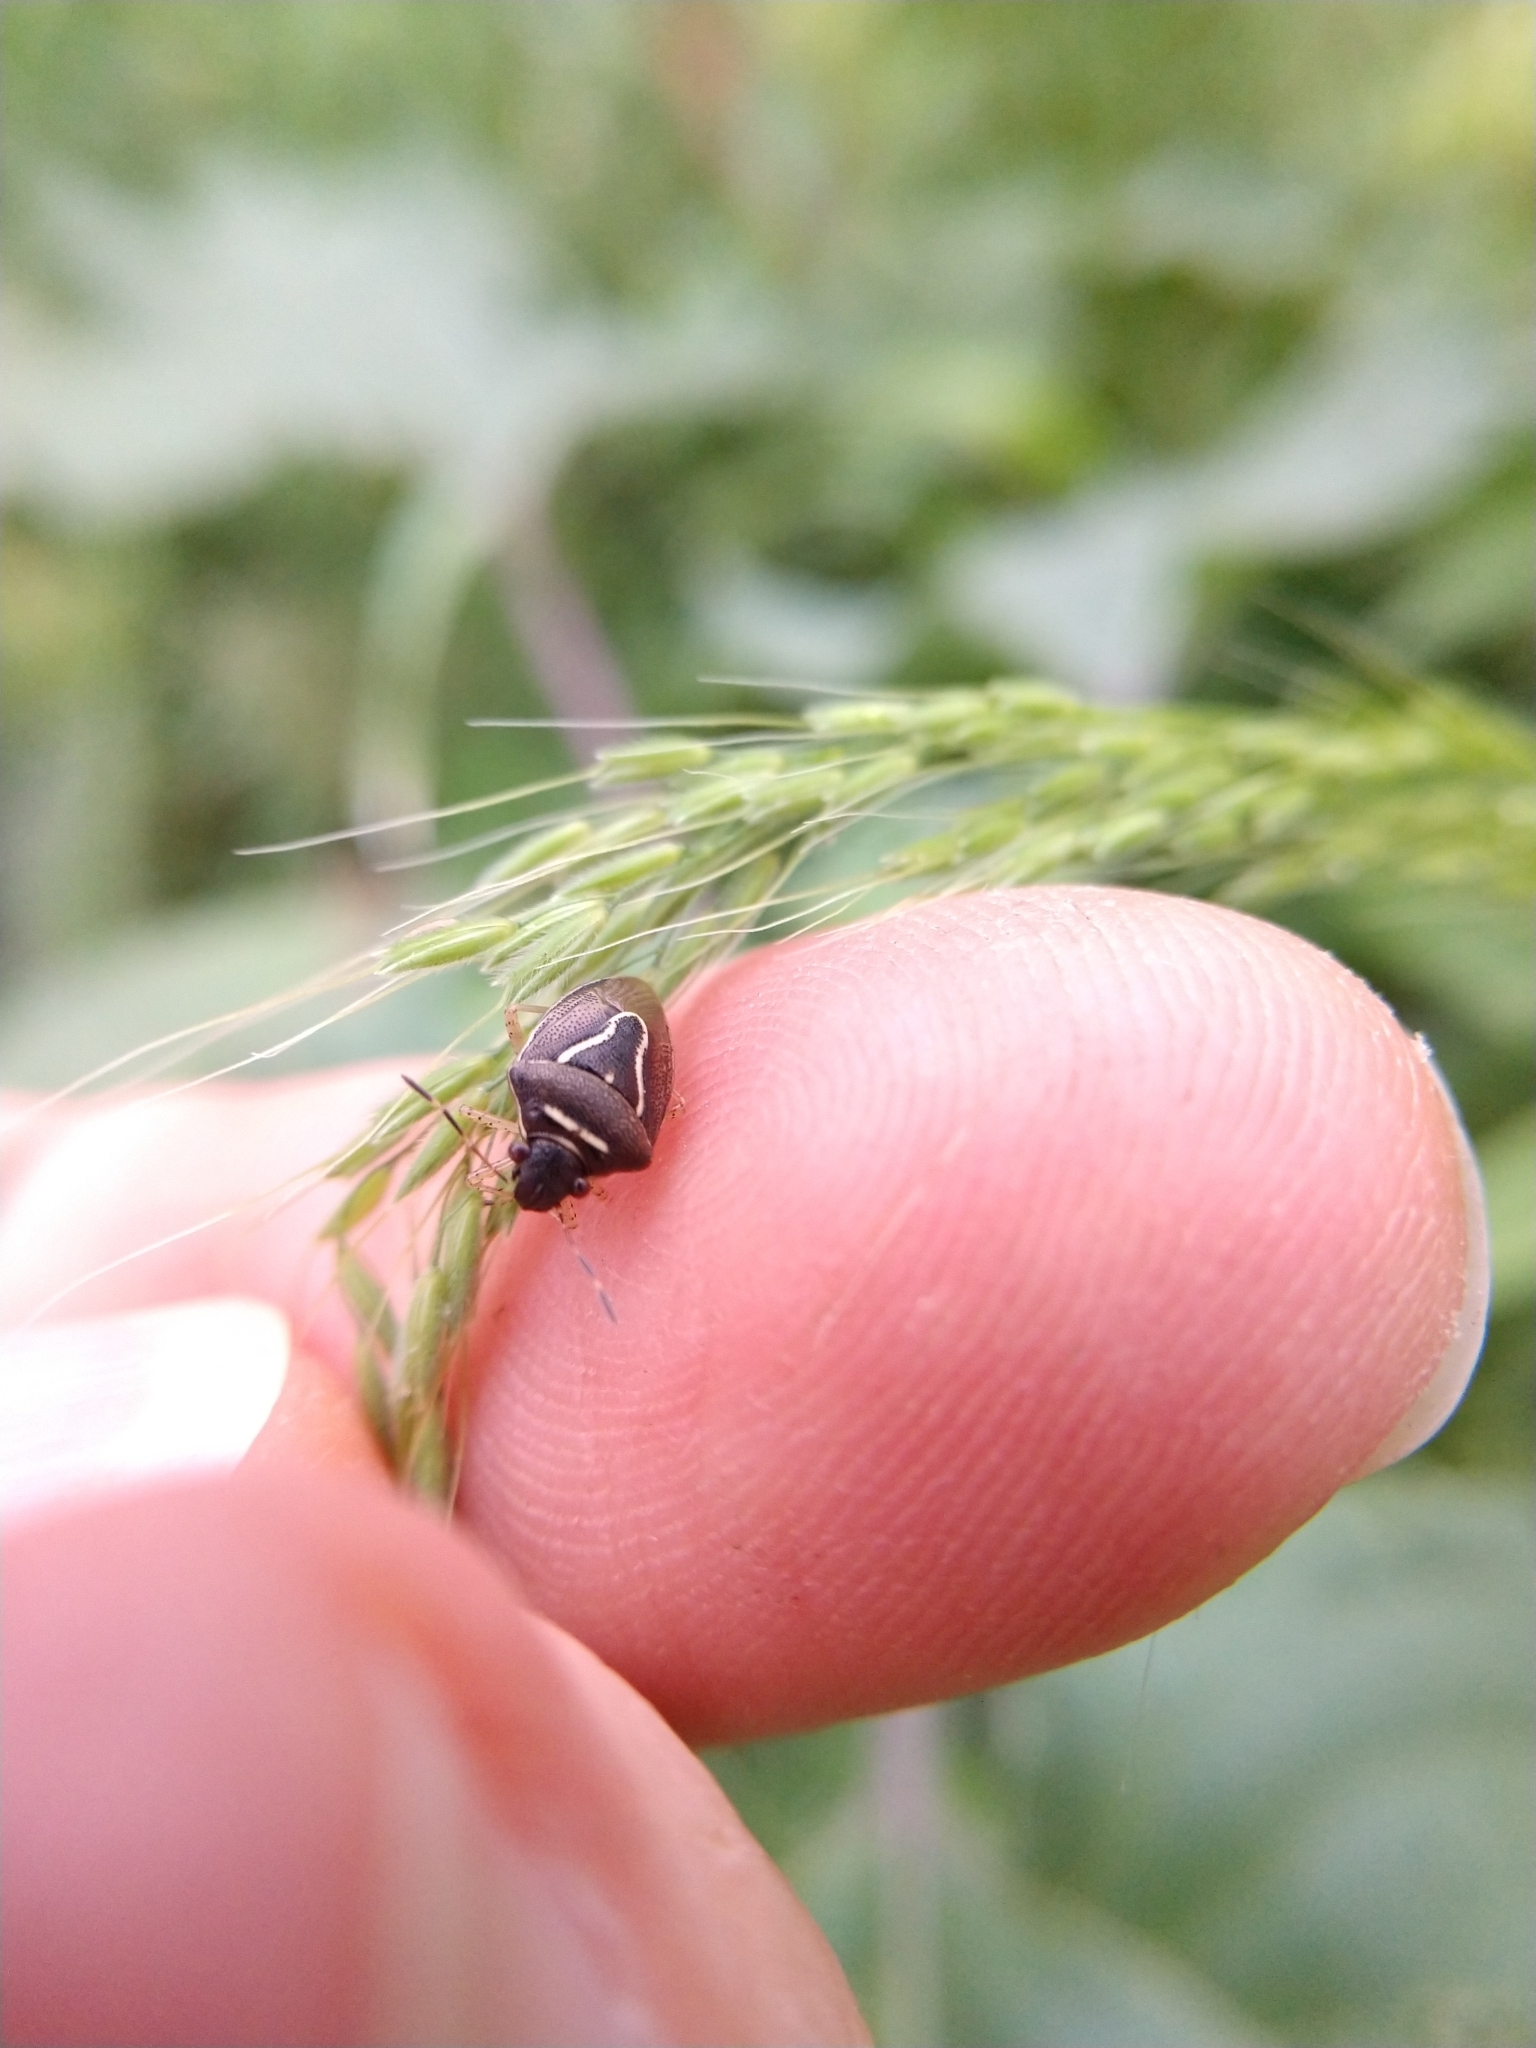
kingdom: Animalia
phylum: Arthropoda
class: Insecta
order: Hemiptera
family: Pentatomidae
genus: Mormidea
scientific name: Mormidea lugens
